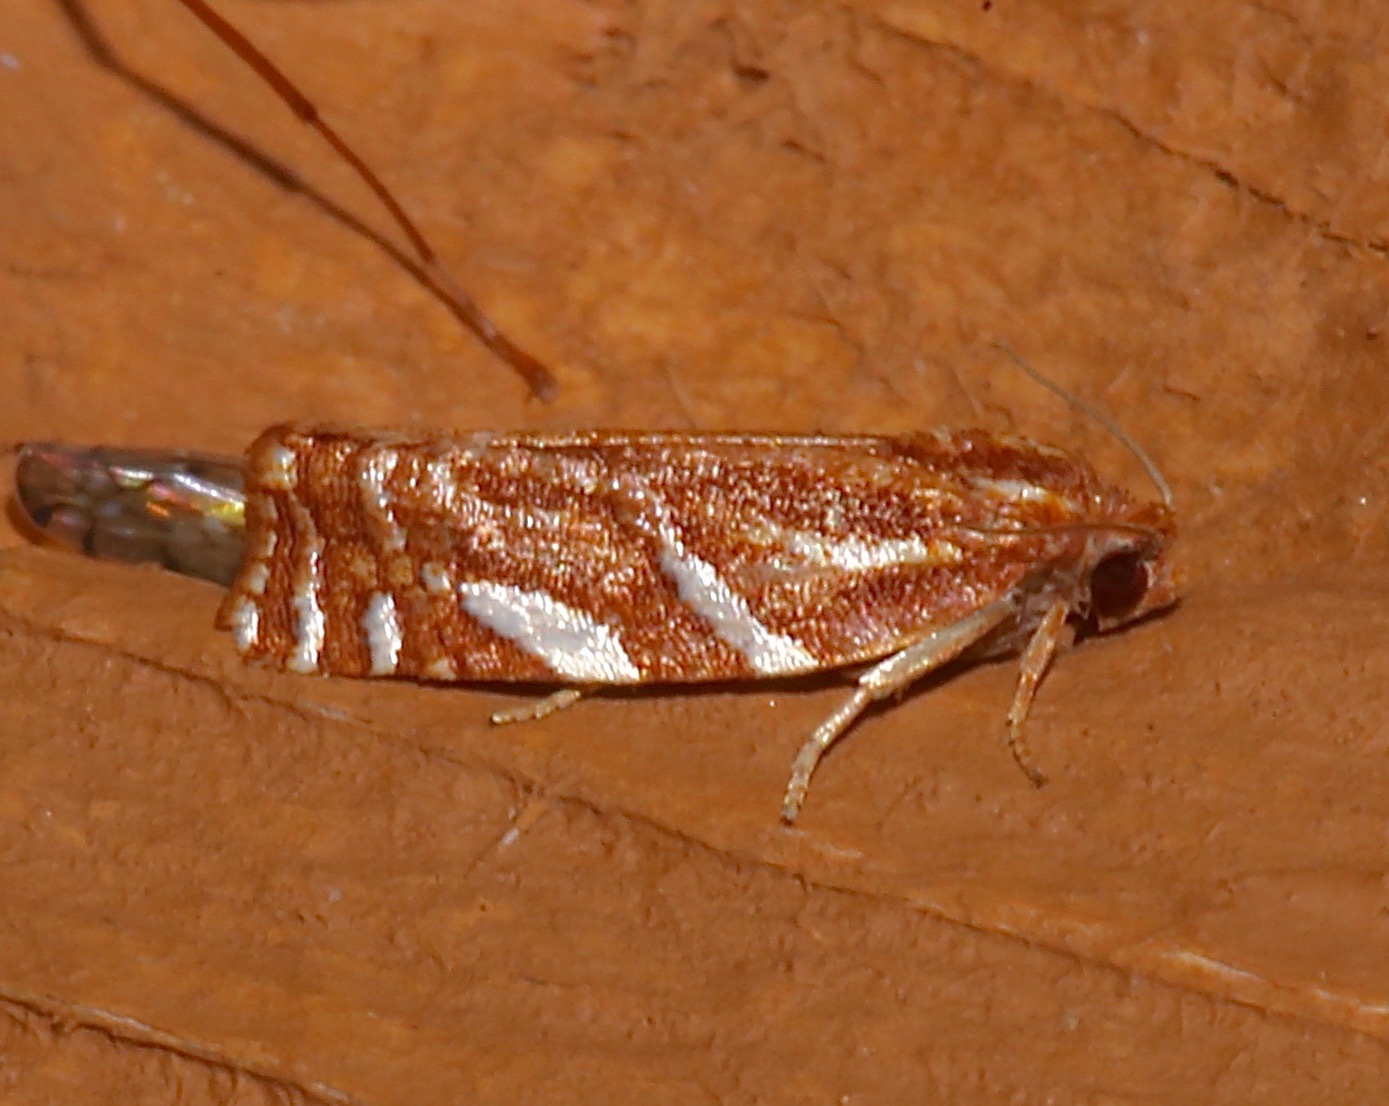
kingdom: Animalia
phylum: Arthropoda
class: Insecta
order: Lepidoptera
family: Tortricidae
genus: Choristoneura
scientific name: Choristoneura argentifasciata
